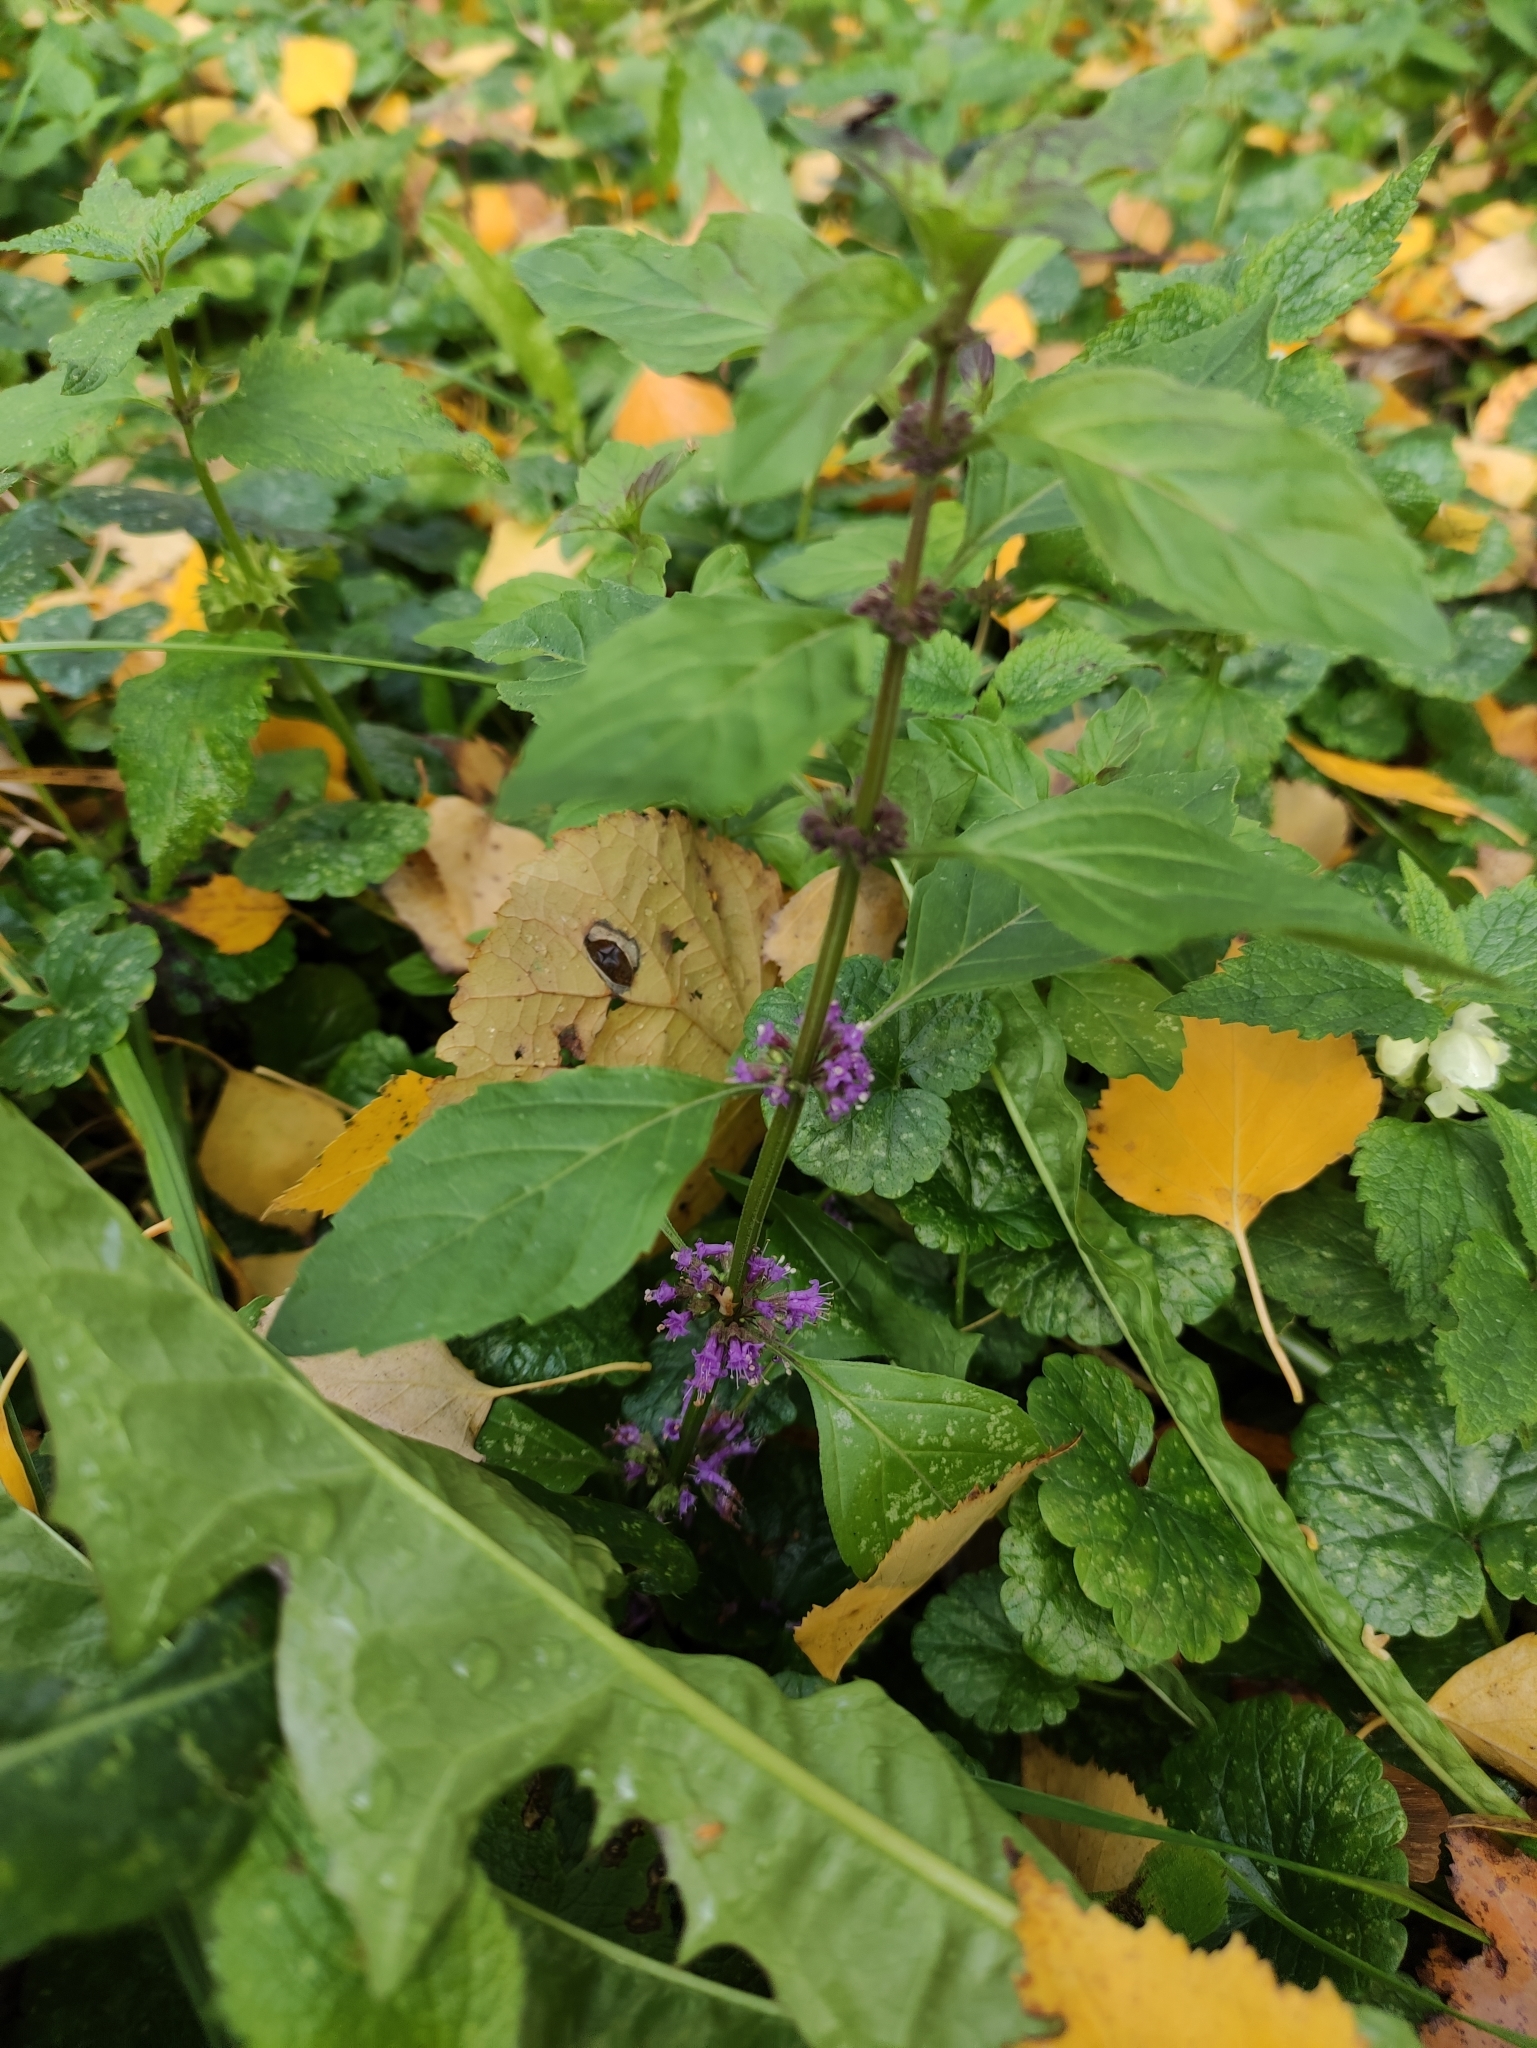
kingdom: Plantae
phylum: Tracheophyta
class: Magnoliopsida
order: Lamiales
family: Lamiaceae
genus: Mentha
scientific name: Mentha arvensis
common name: Corn mint
